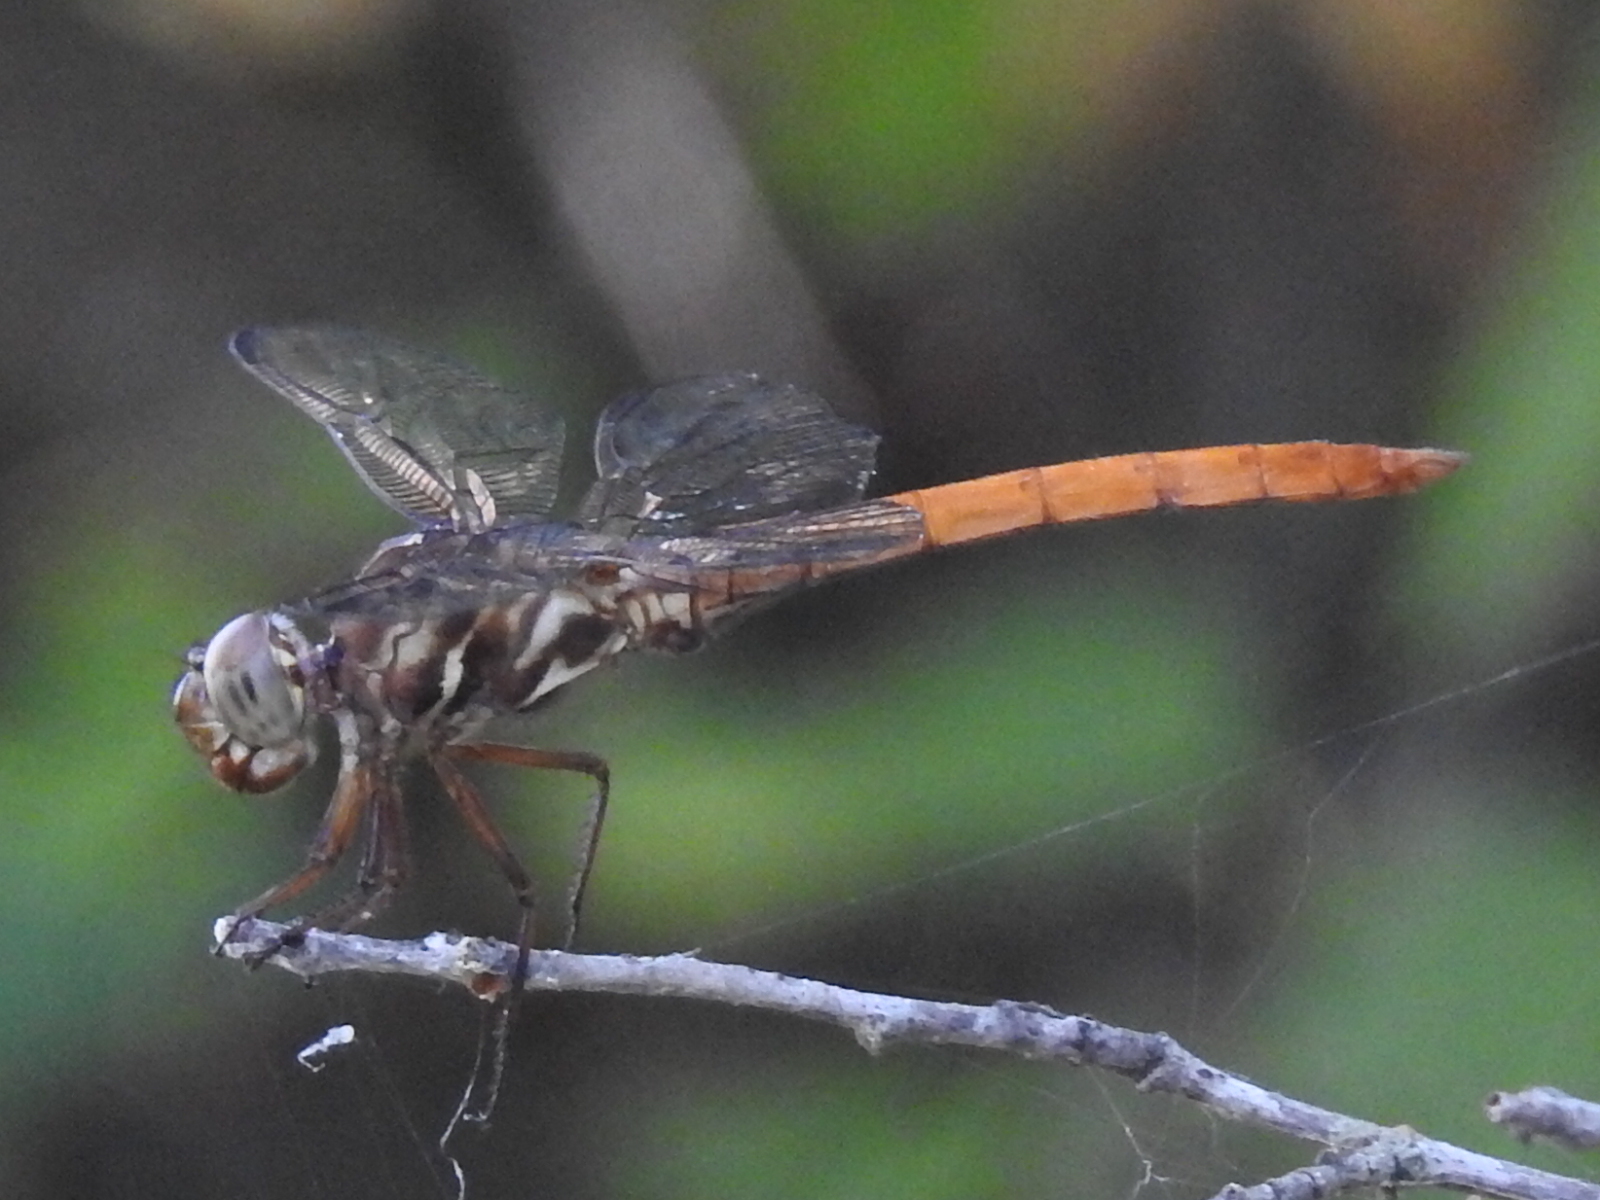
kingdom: Animalia
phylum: Arthropoda
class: Insecta
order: Odonata
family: Libellulidae
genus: Orthemis
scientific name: Orthemis ferruginea
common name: Roseate skimmer
